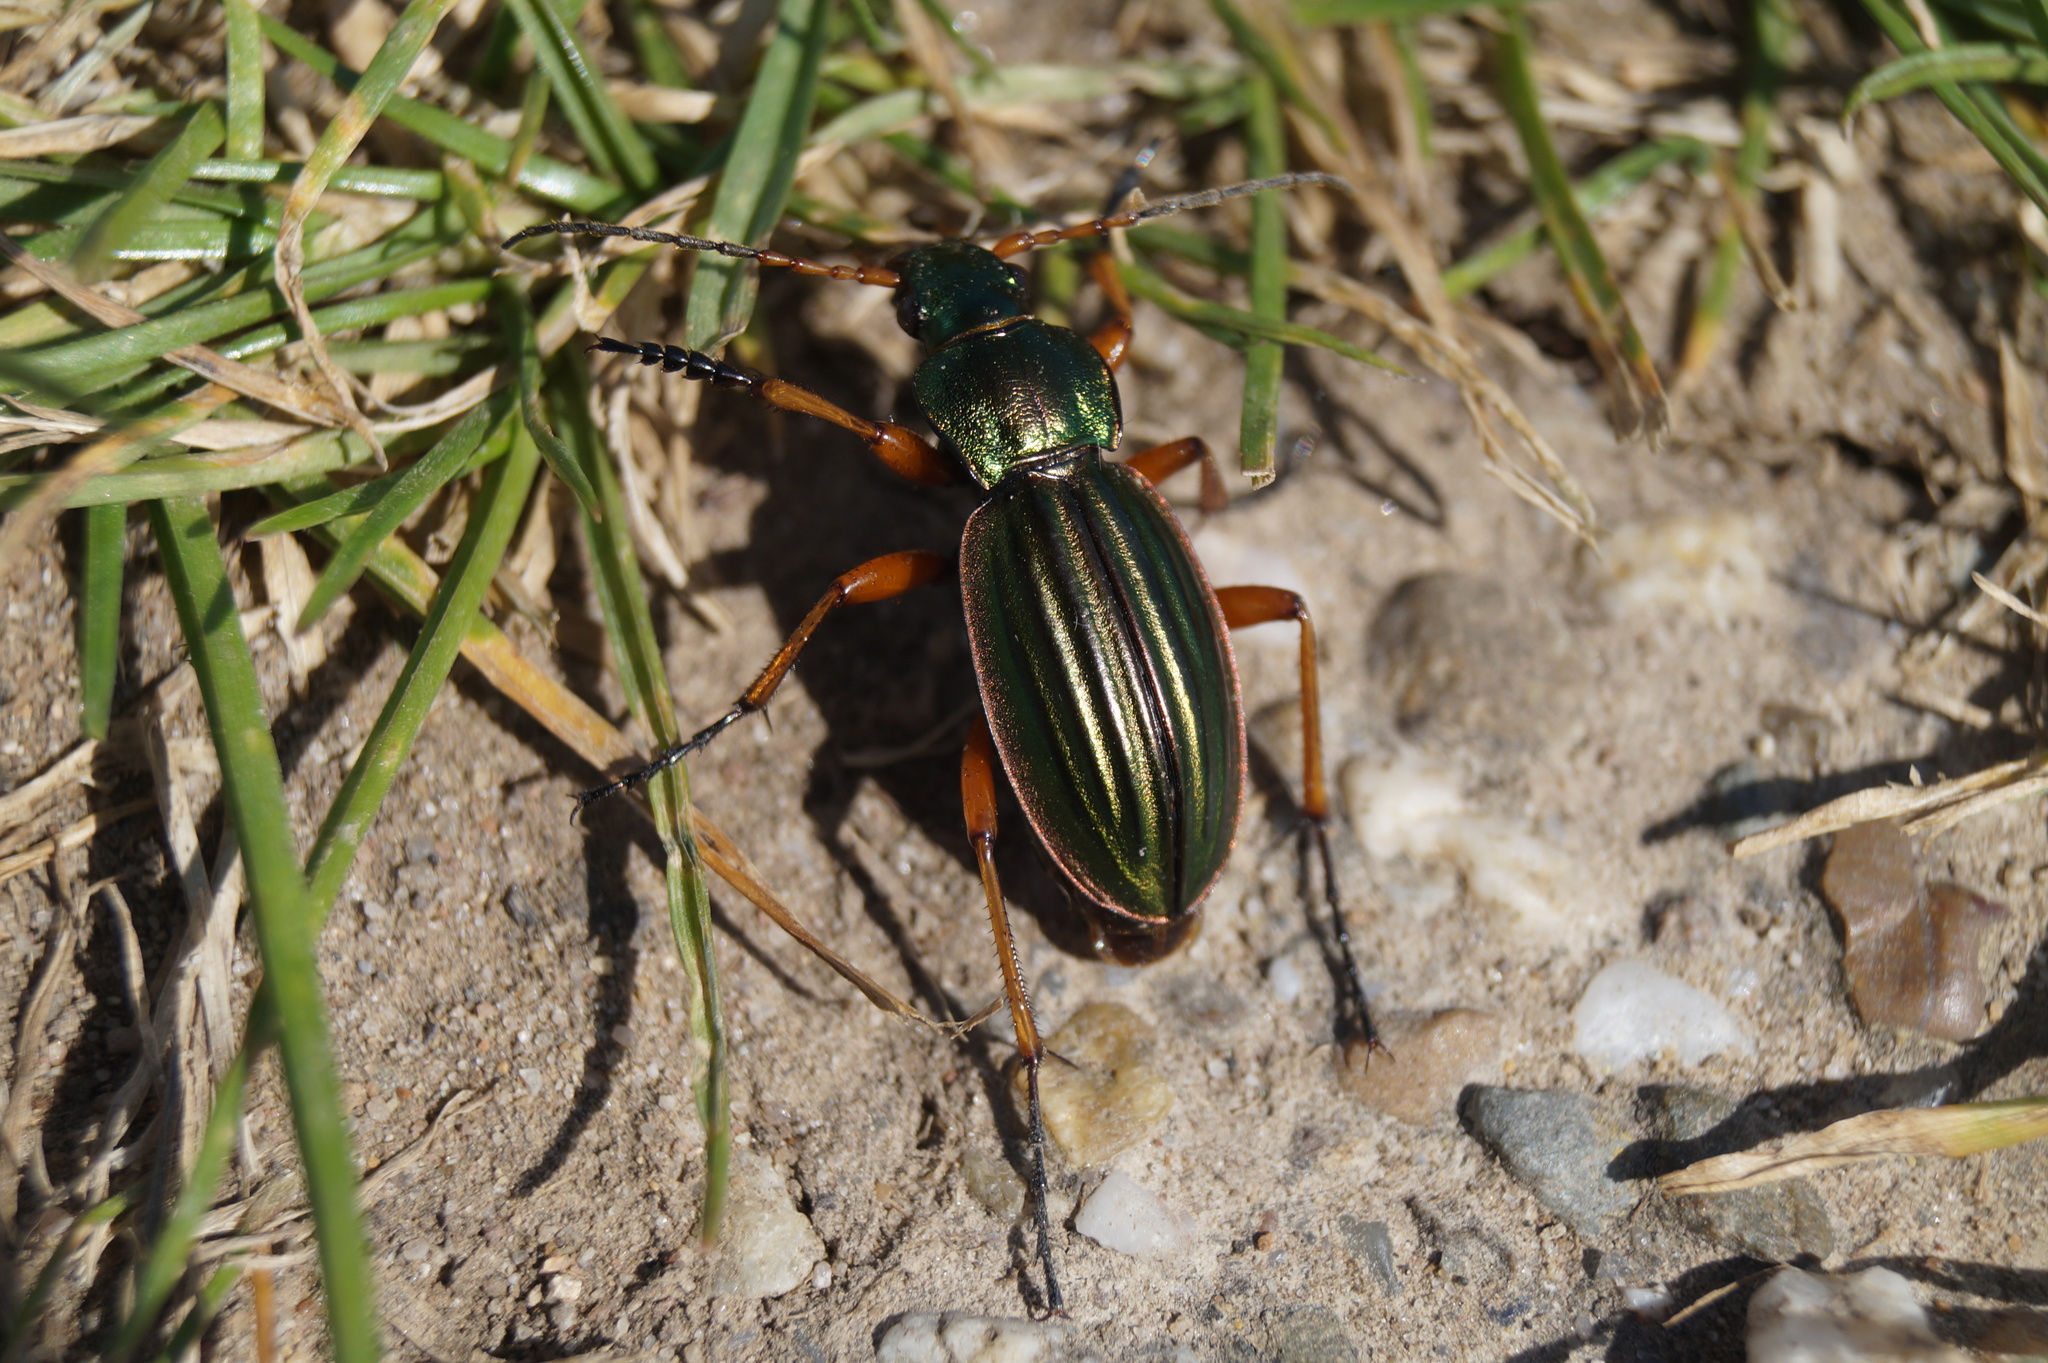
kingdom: Animalia
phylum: Arthropoda
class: Insecta
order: Coleoptera
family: Carabidae
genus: Carabus
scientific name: Carabus auratus
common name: Golden ground beetle
